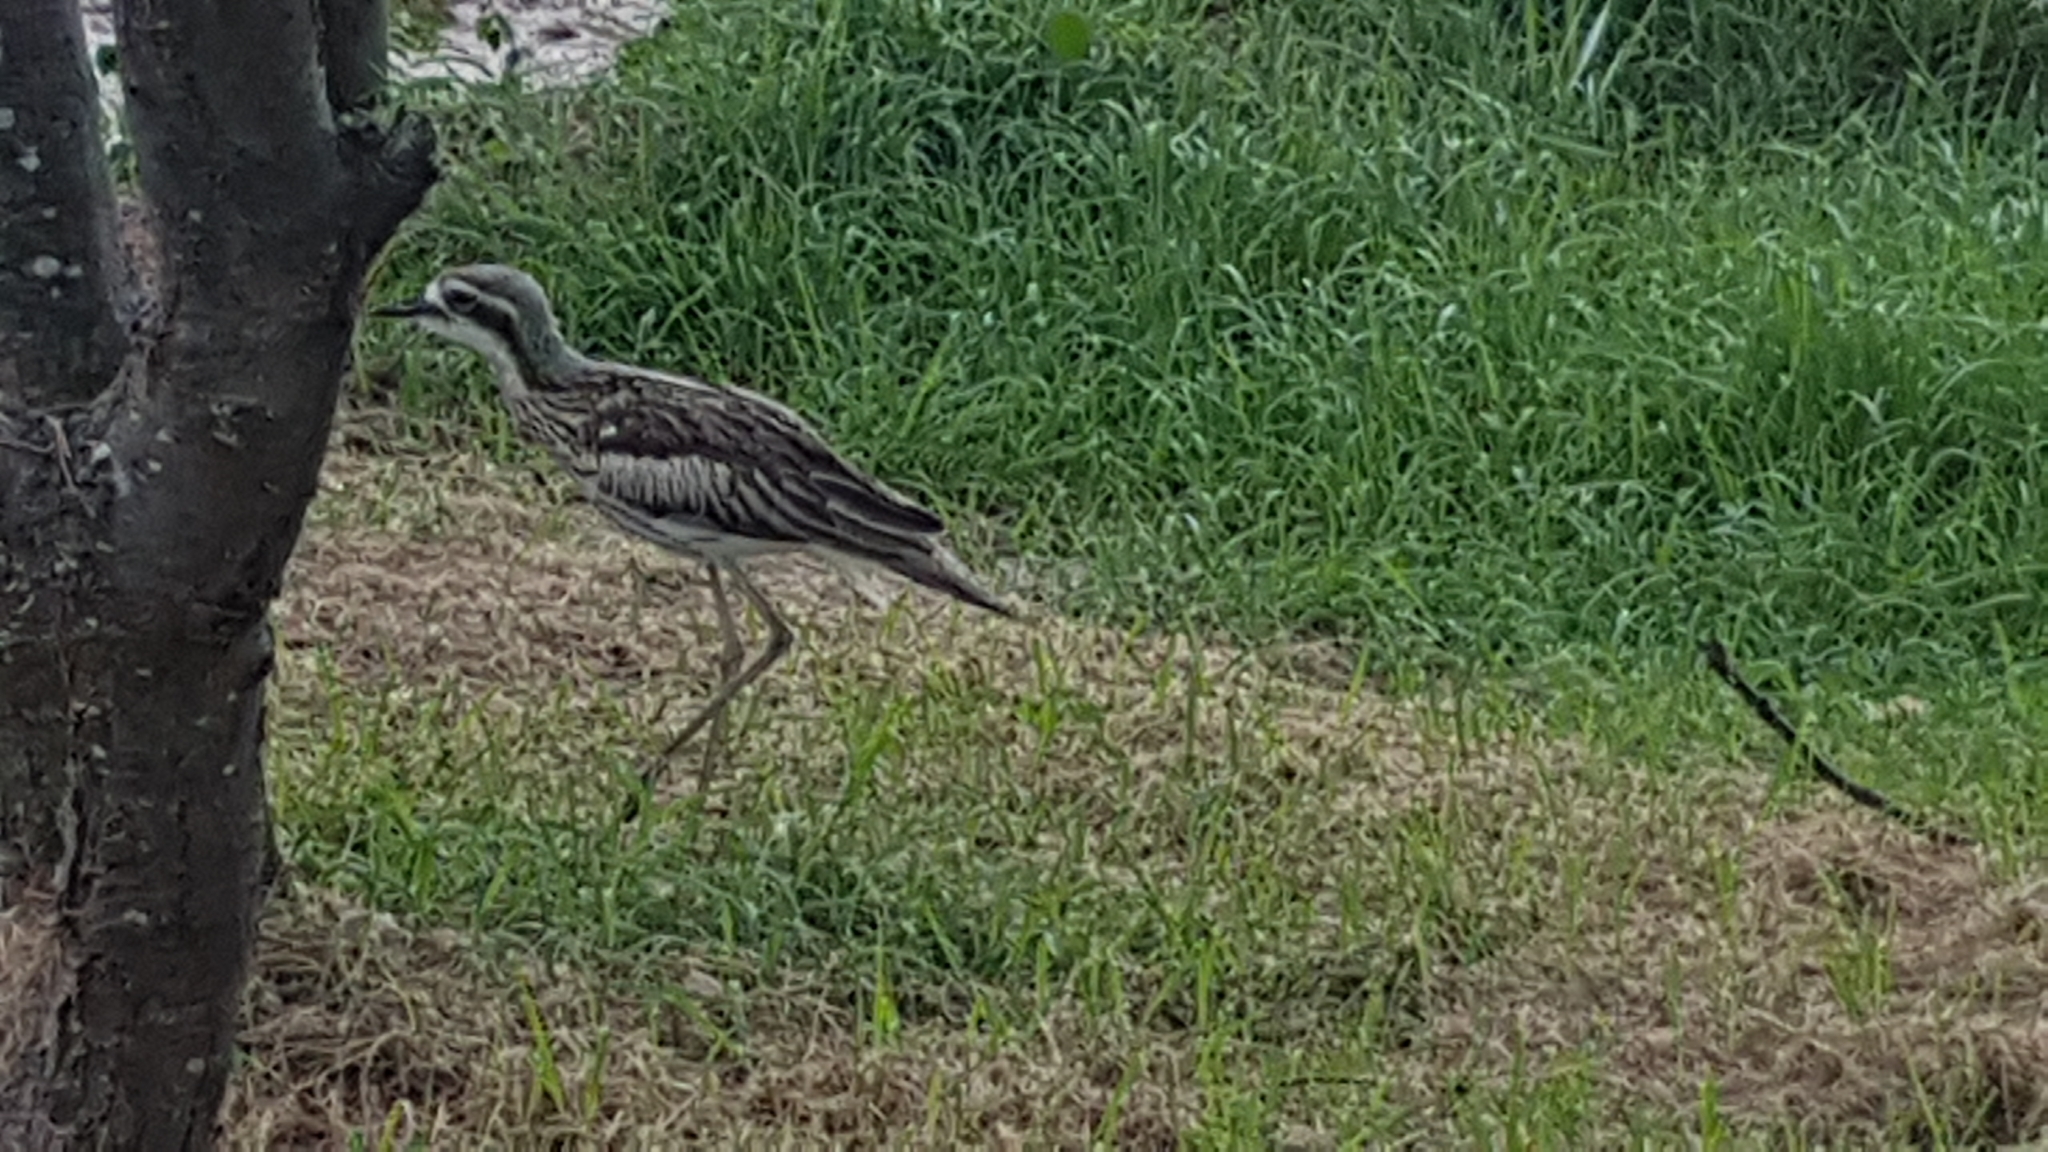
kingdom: Animalia
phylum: Chordata
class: Aves
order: Charadriiformes
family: Burhinidae
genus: Burhinus
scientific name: Burhinus grallarius
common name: Bush stone-curlew
